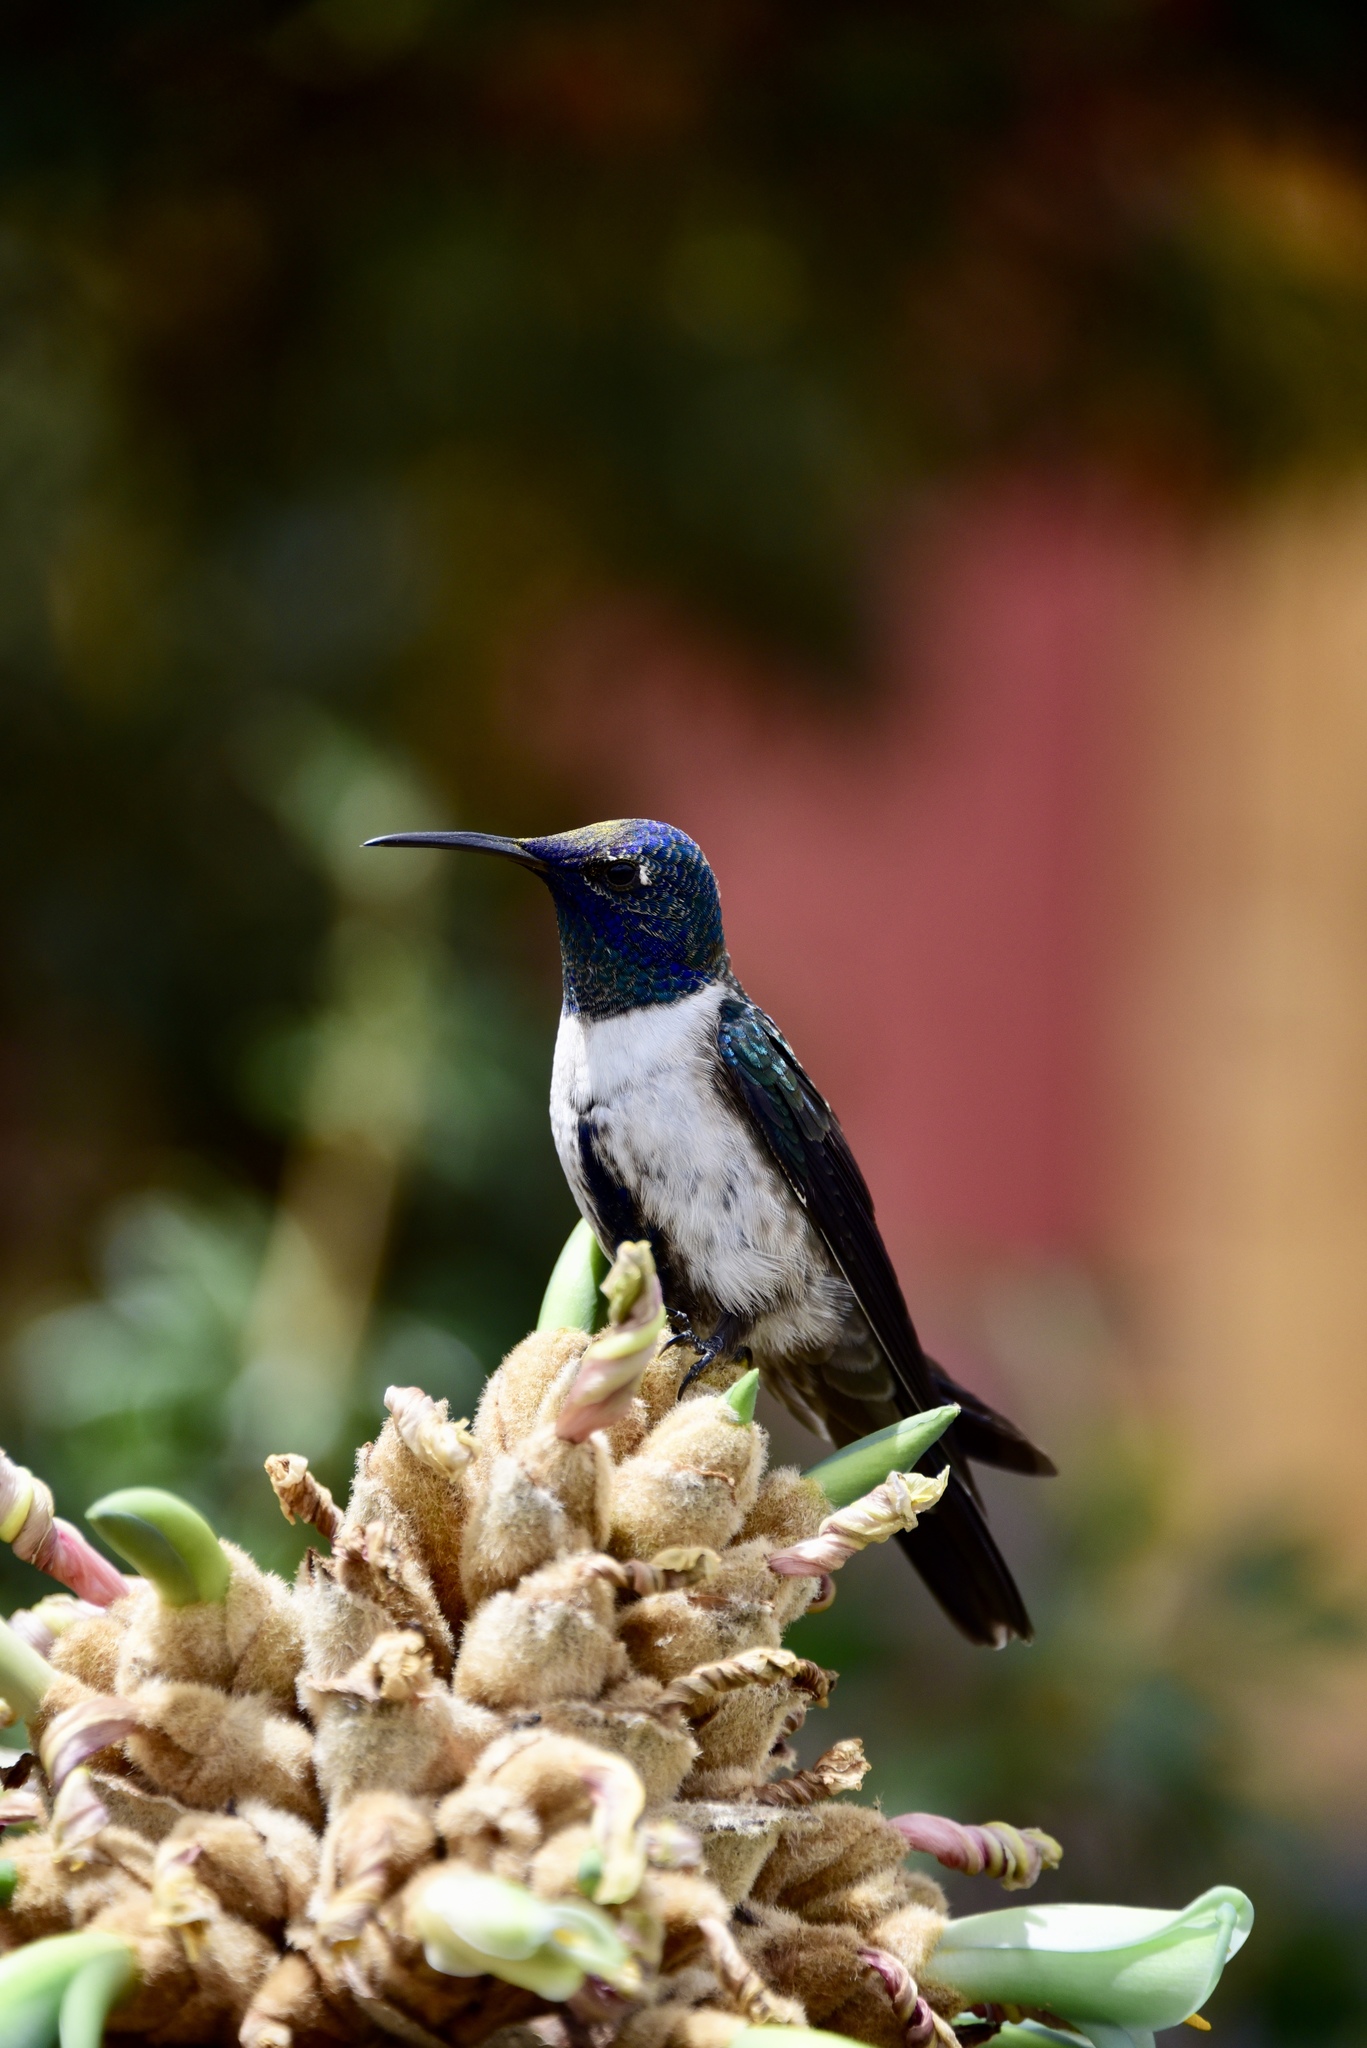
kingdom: Animalia
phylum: Chordata
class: Aves
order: Apodiformes
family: Trochilidae
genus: Oreotrochilus
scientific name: Oreotrochilus chimborazo
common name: Ecuadorian hillstar
